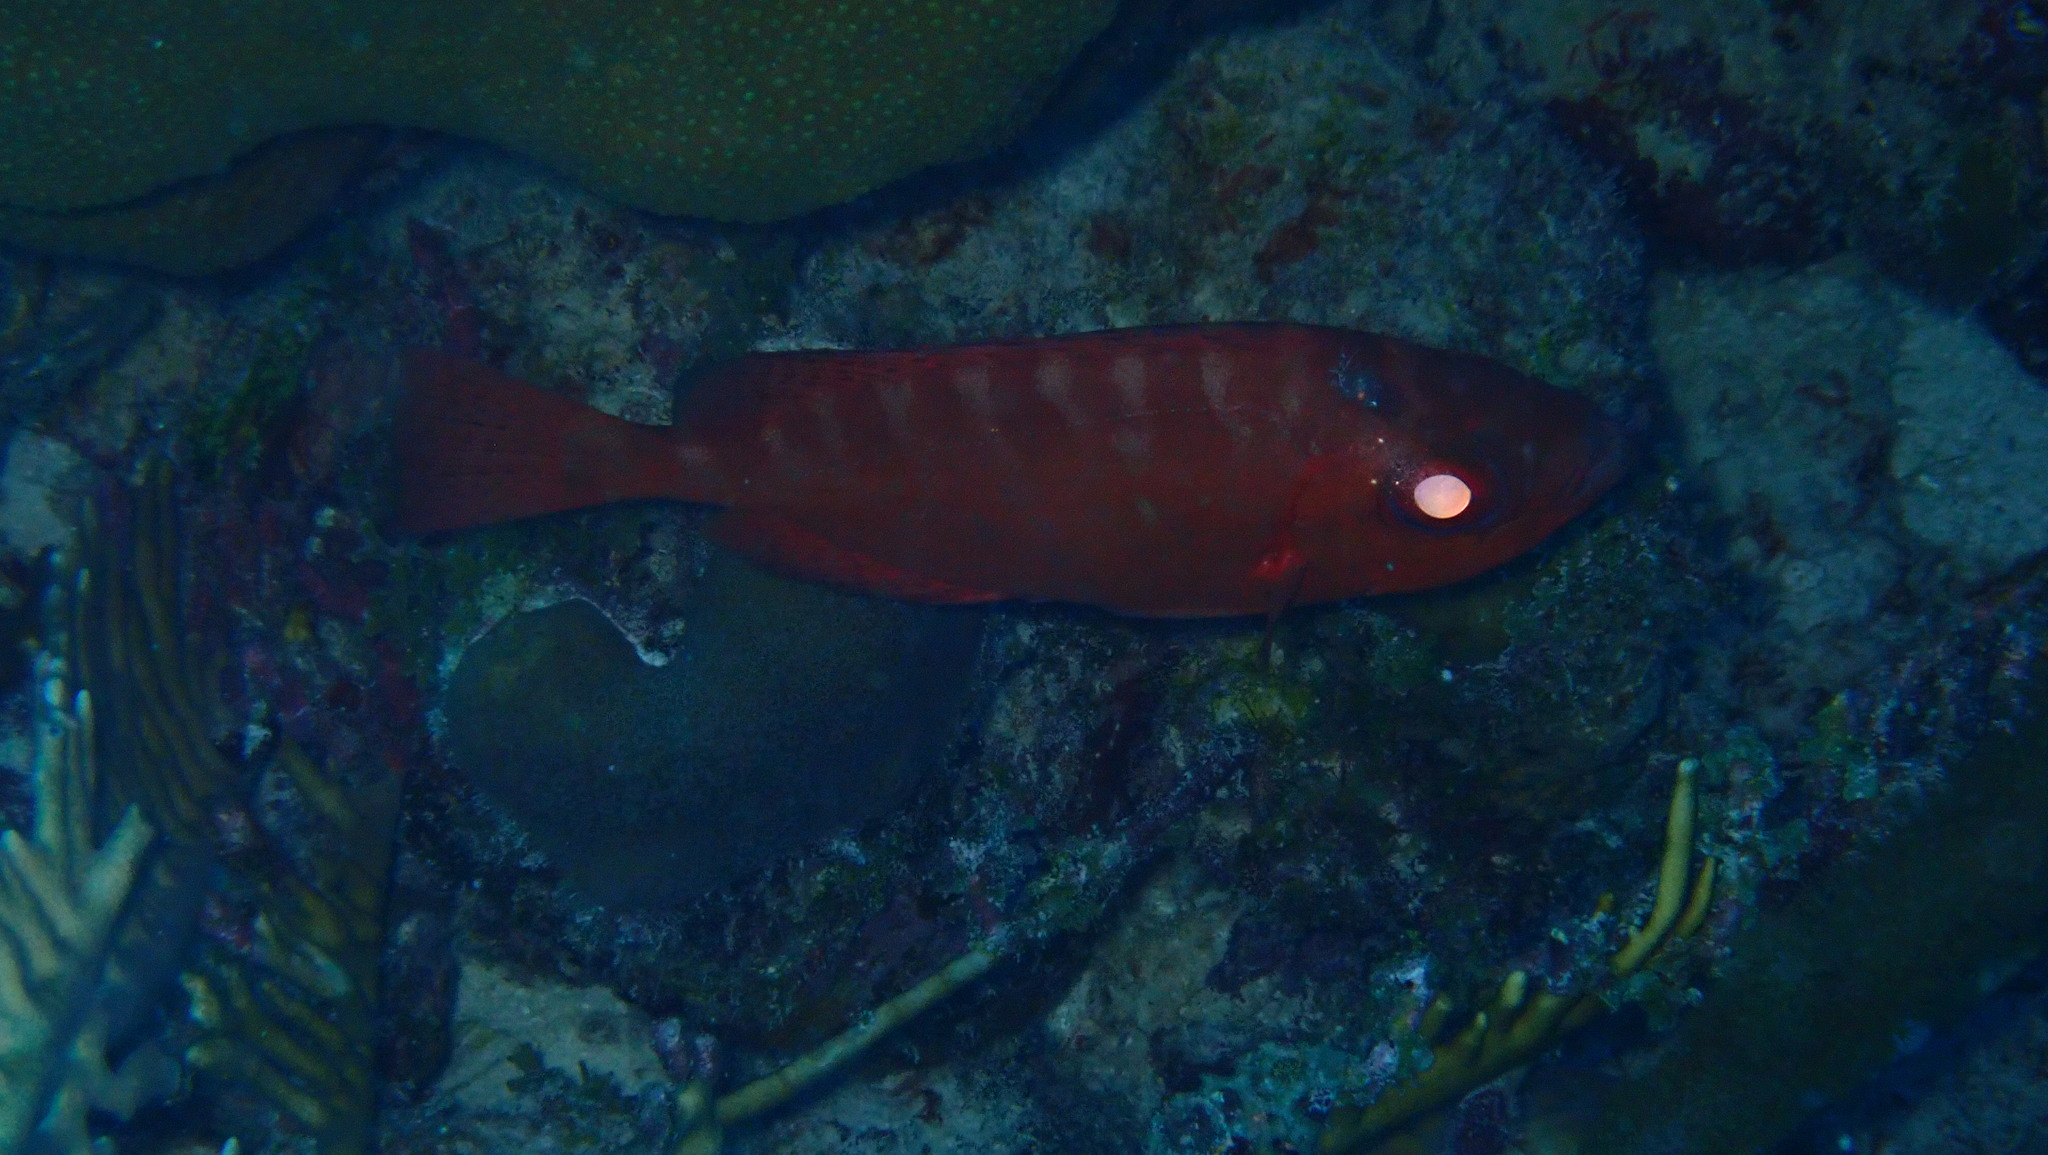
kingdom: Animalia
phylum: Chordata
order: Perciformes
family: Priacanthidae
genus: Heteropriacanthus
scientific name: Heteropriacanthus cruentatus
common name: Glasseye
